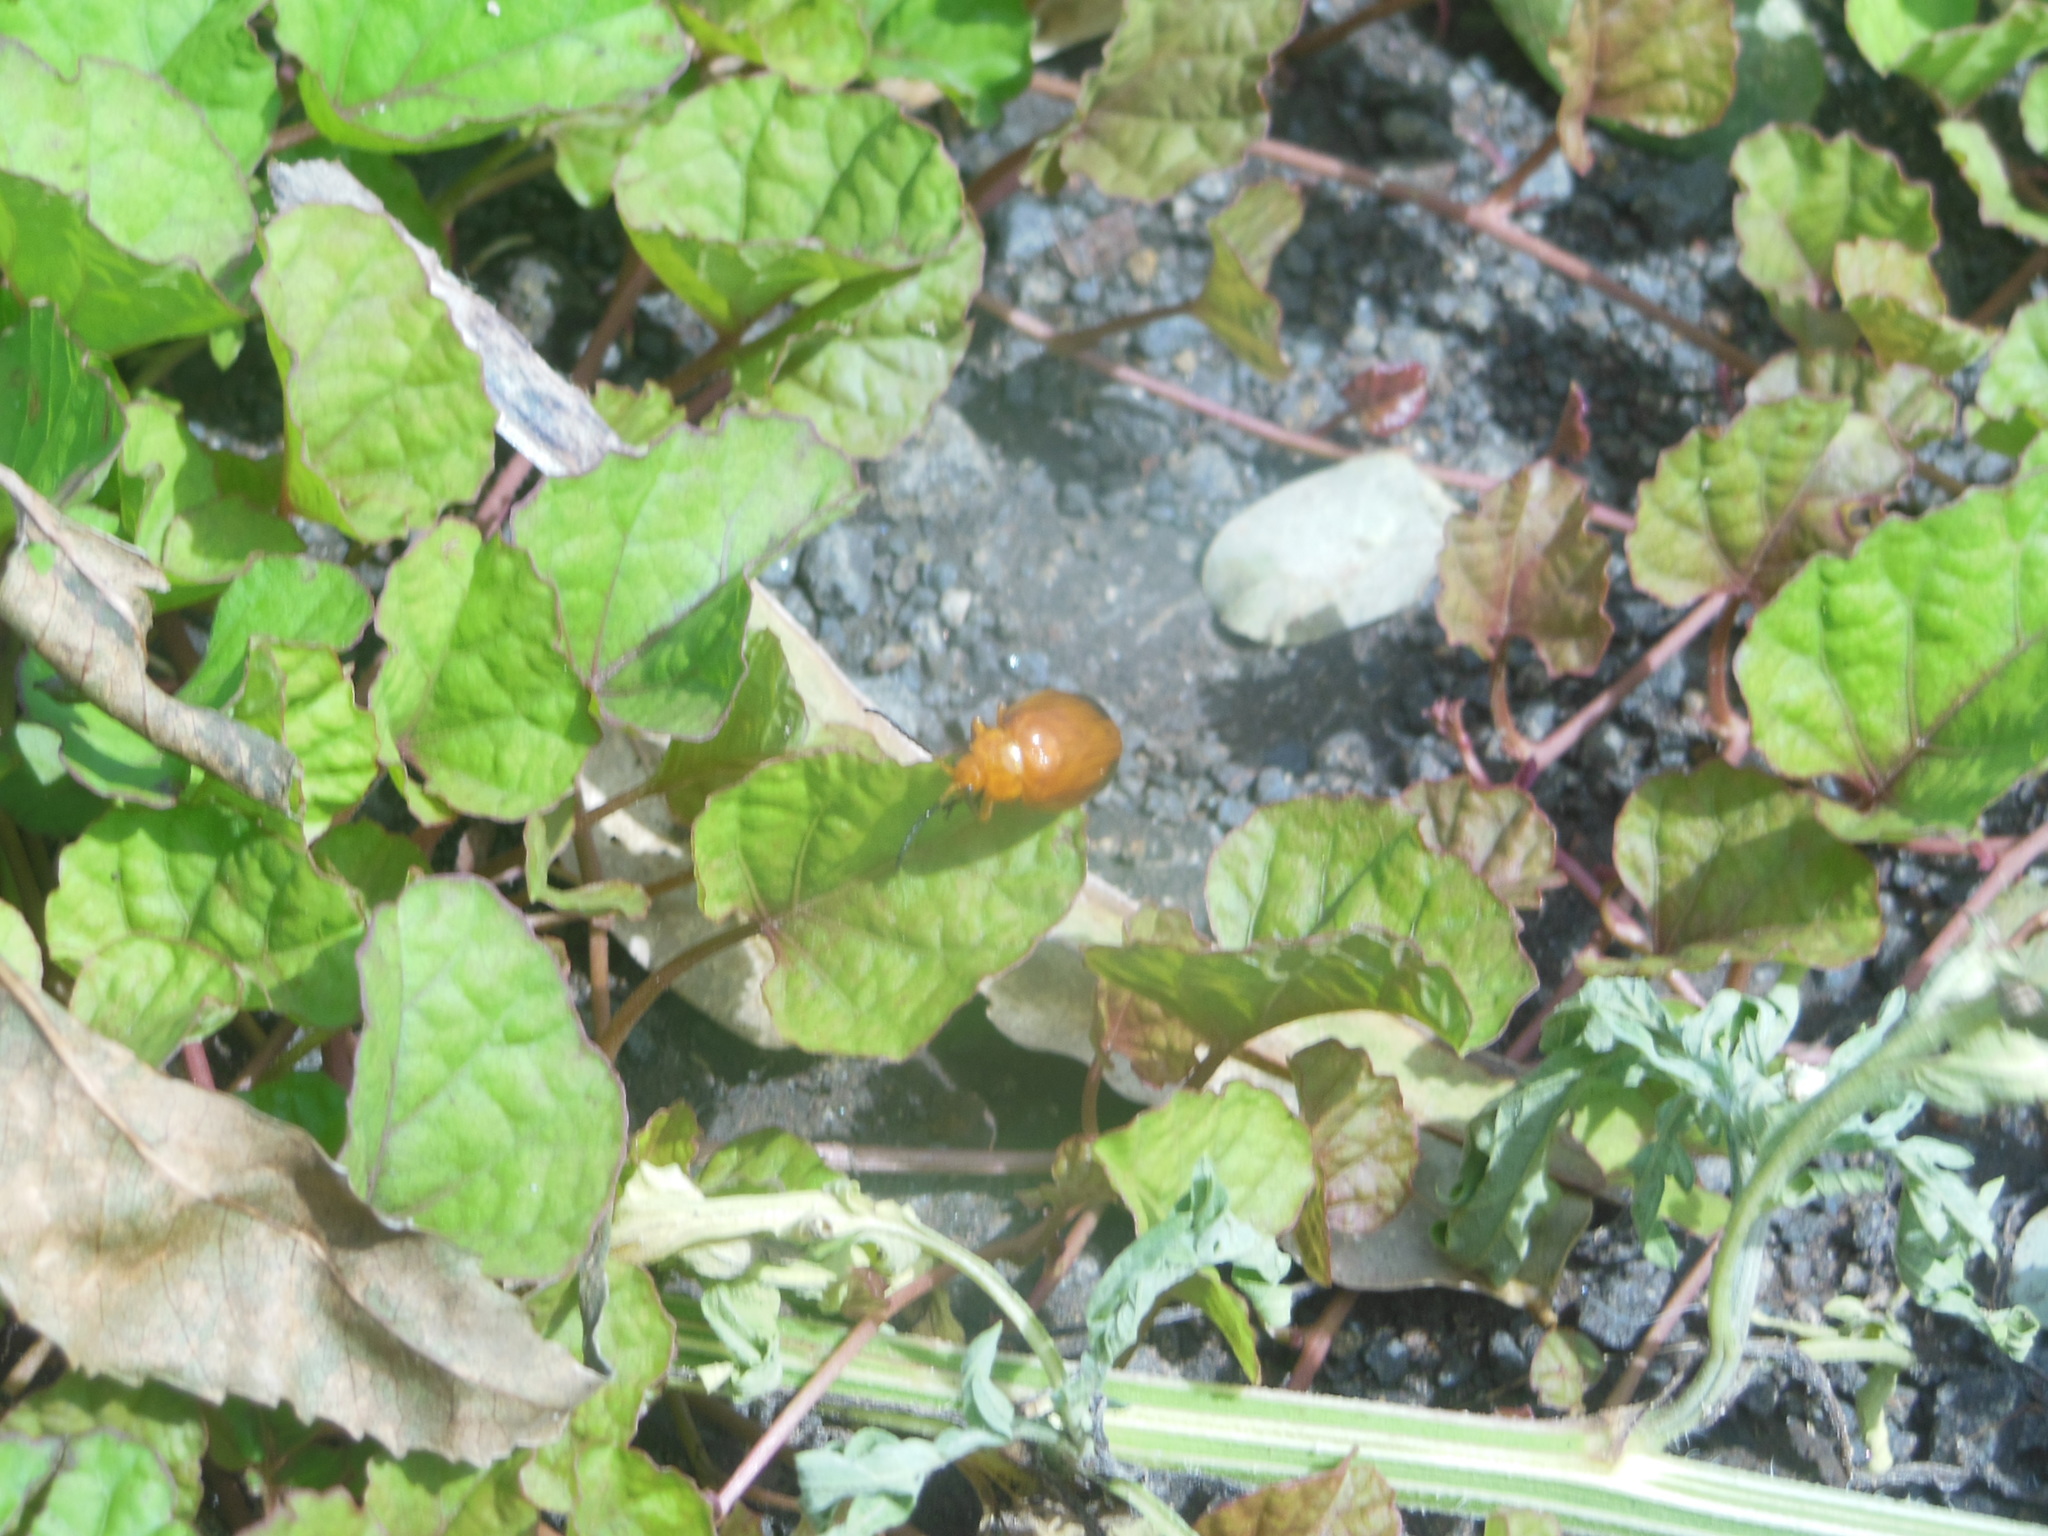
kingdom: Animalia
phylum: Arthropoda
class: Insecta
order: Coleoptera
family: Chrysomelidae
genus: Oides
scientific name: Oides palleata
